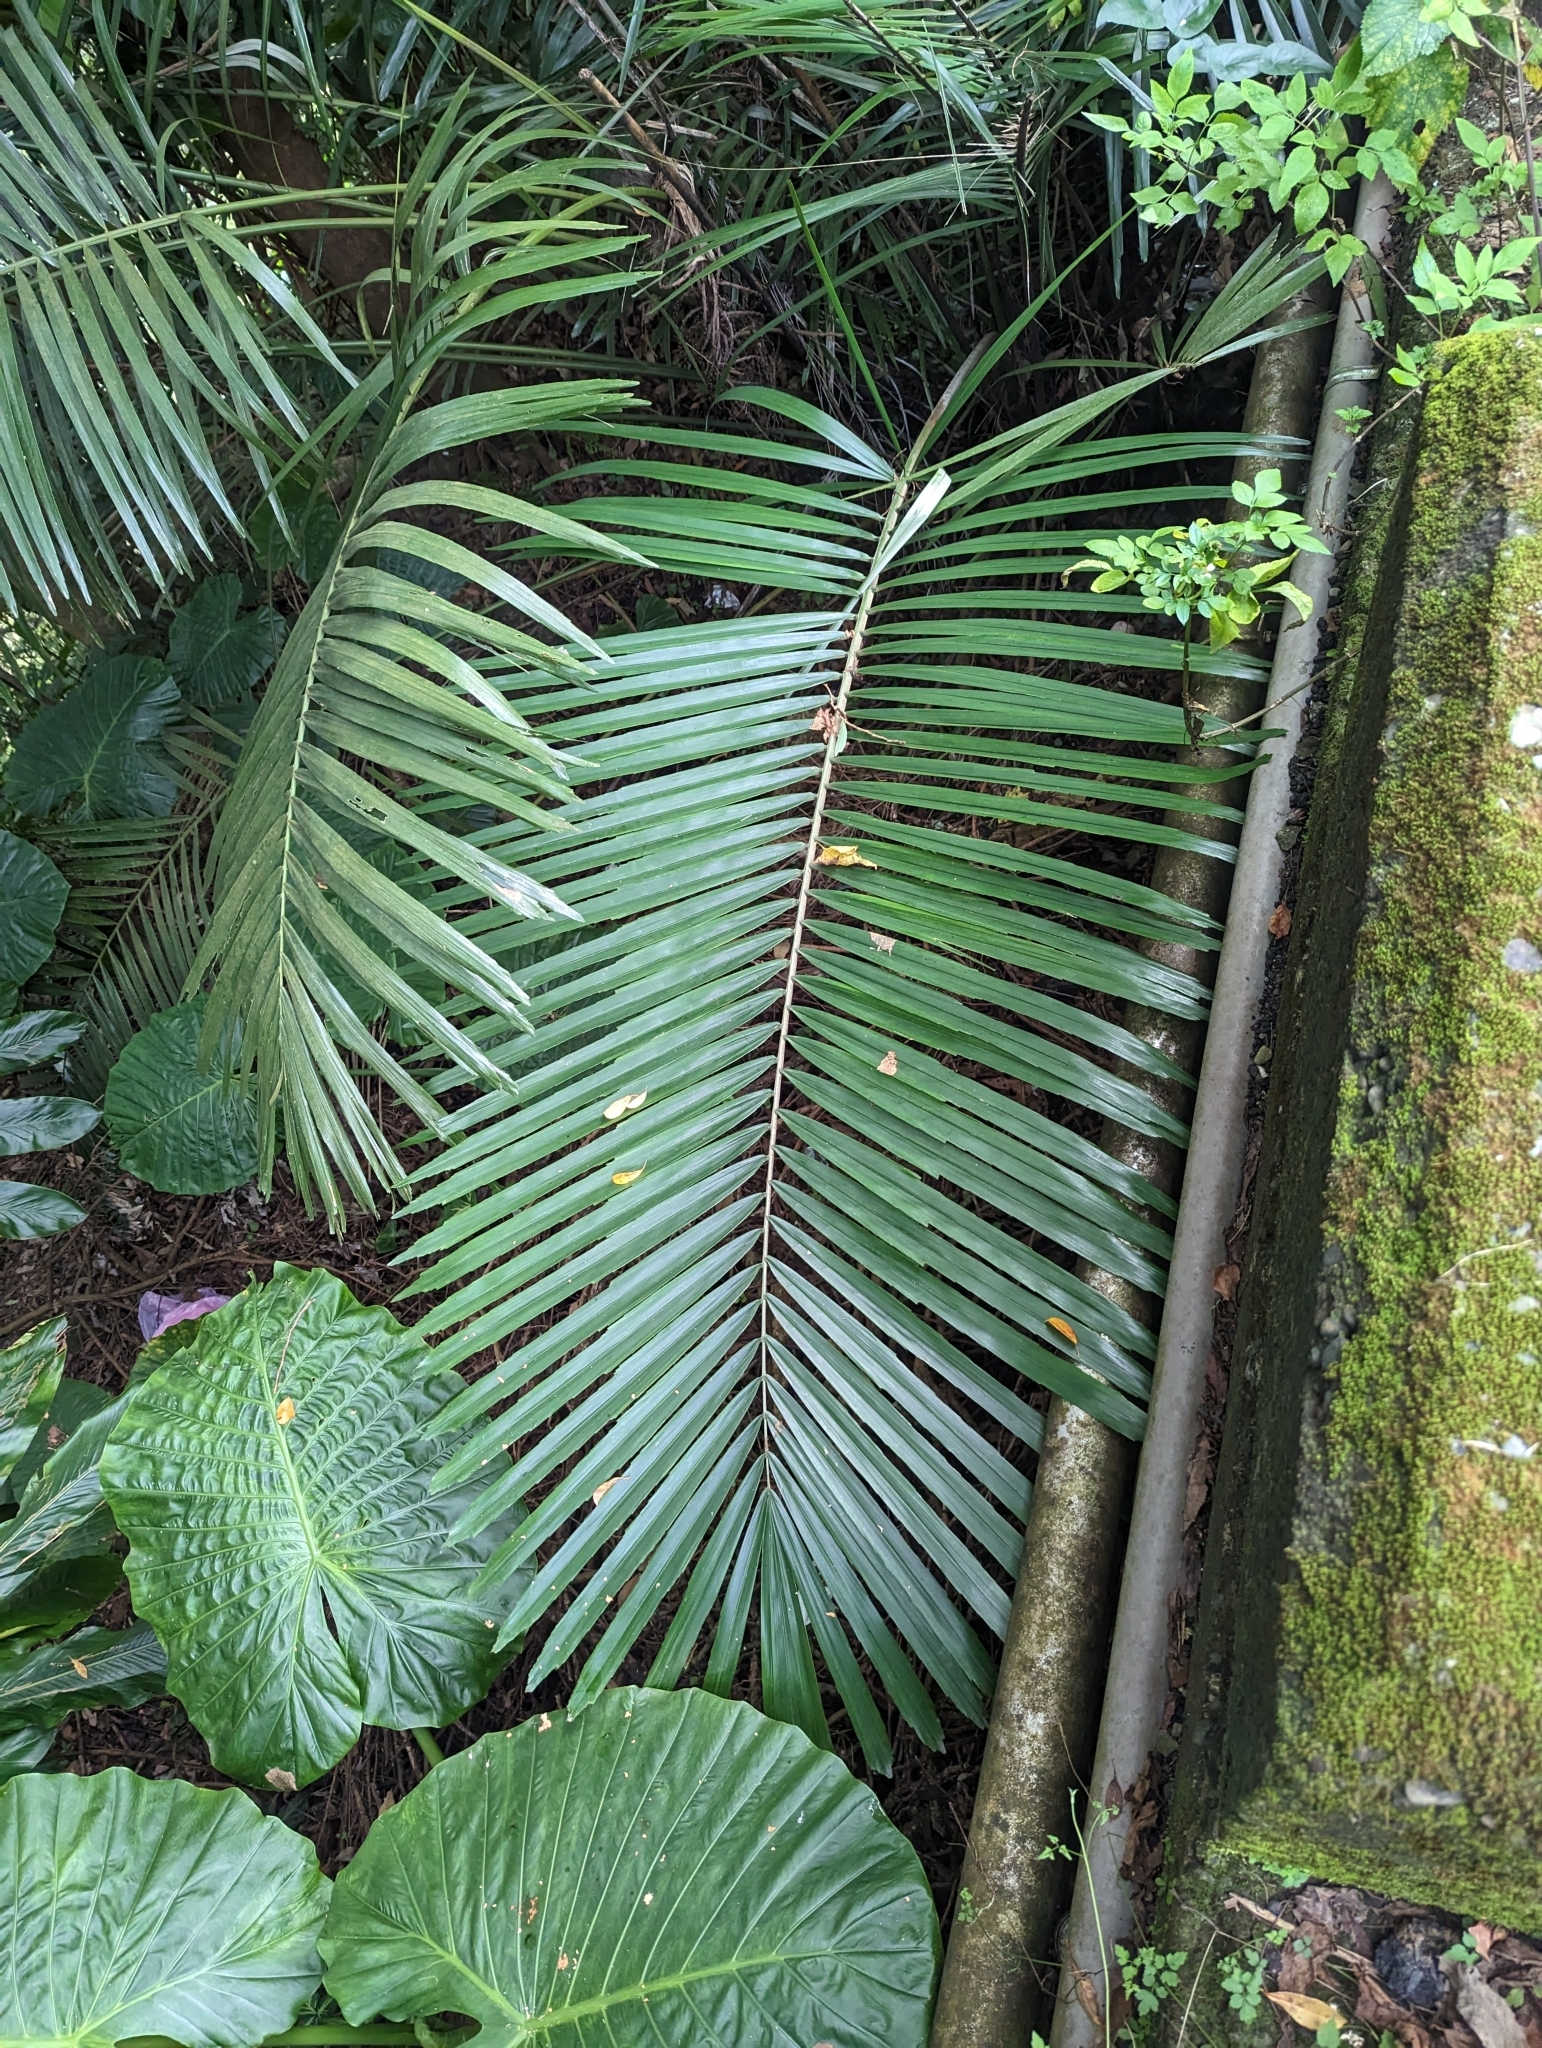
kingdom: Plantae
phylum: Tracheophyta
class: Liliopsida
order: Arecales
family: Arecaceae
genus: Arenga
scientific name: Arenga engleri
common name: Formosan sugar palm
